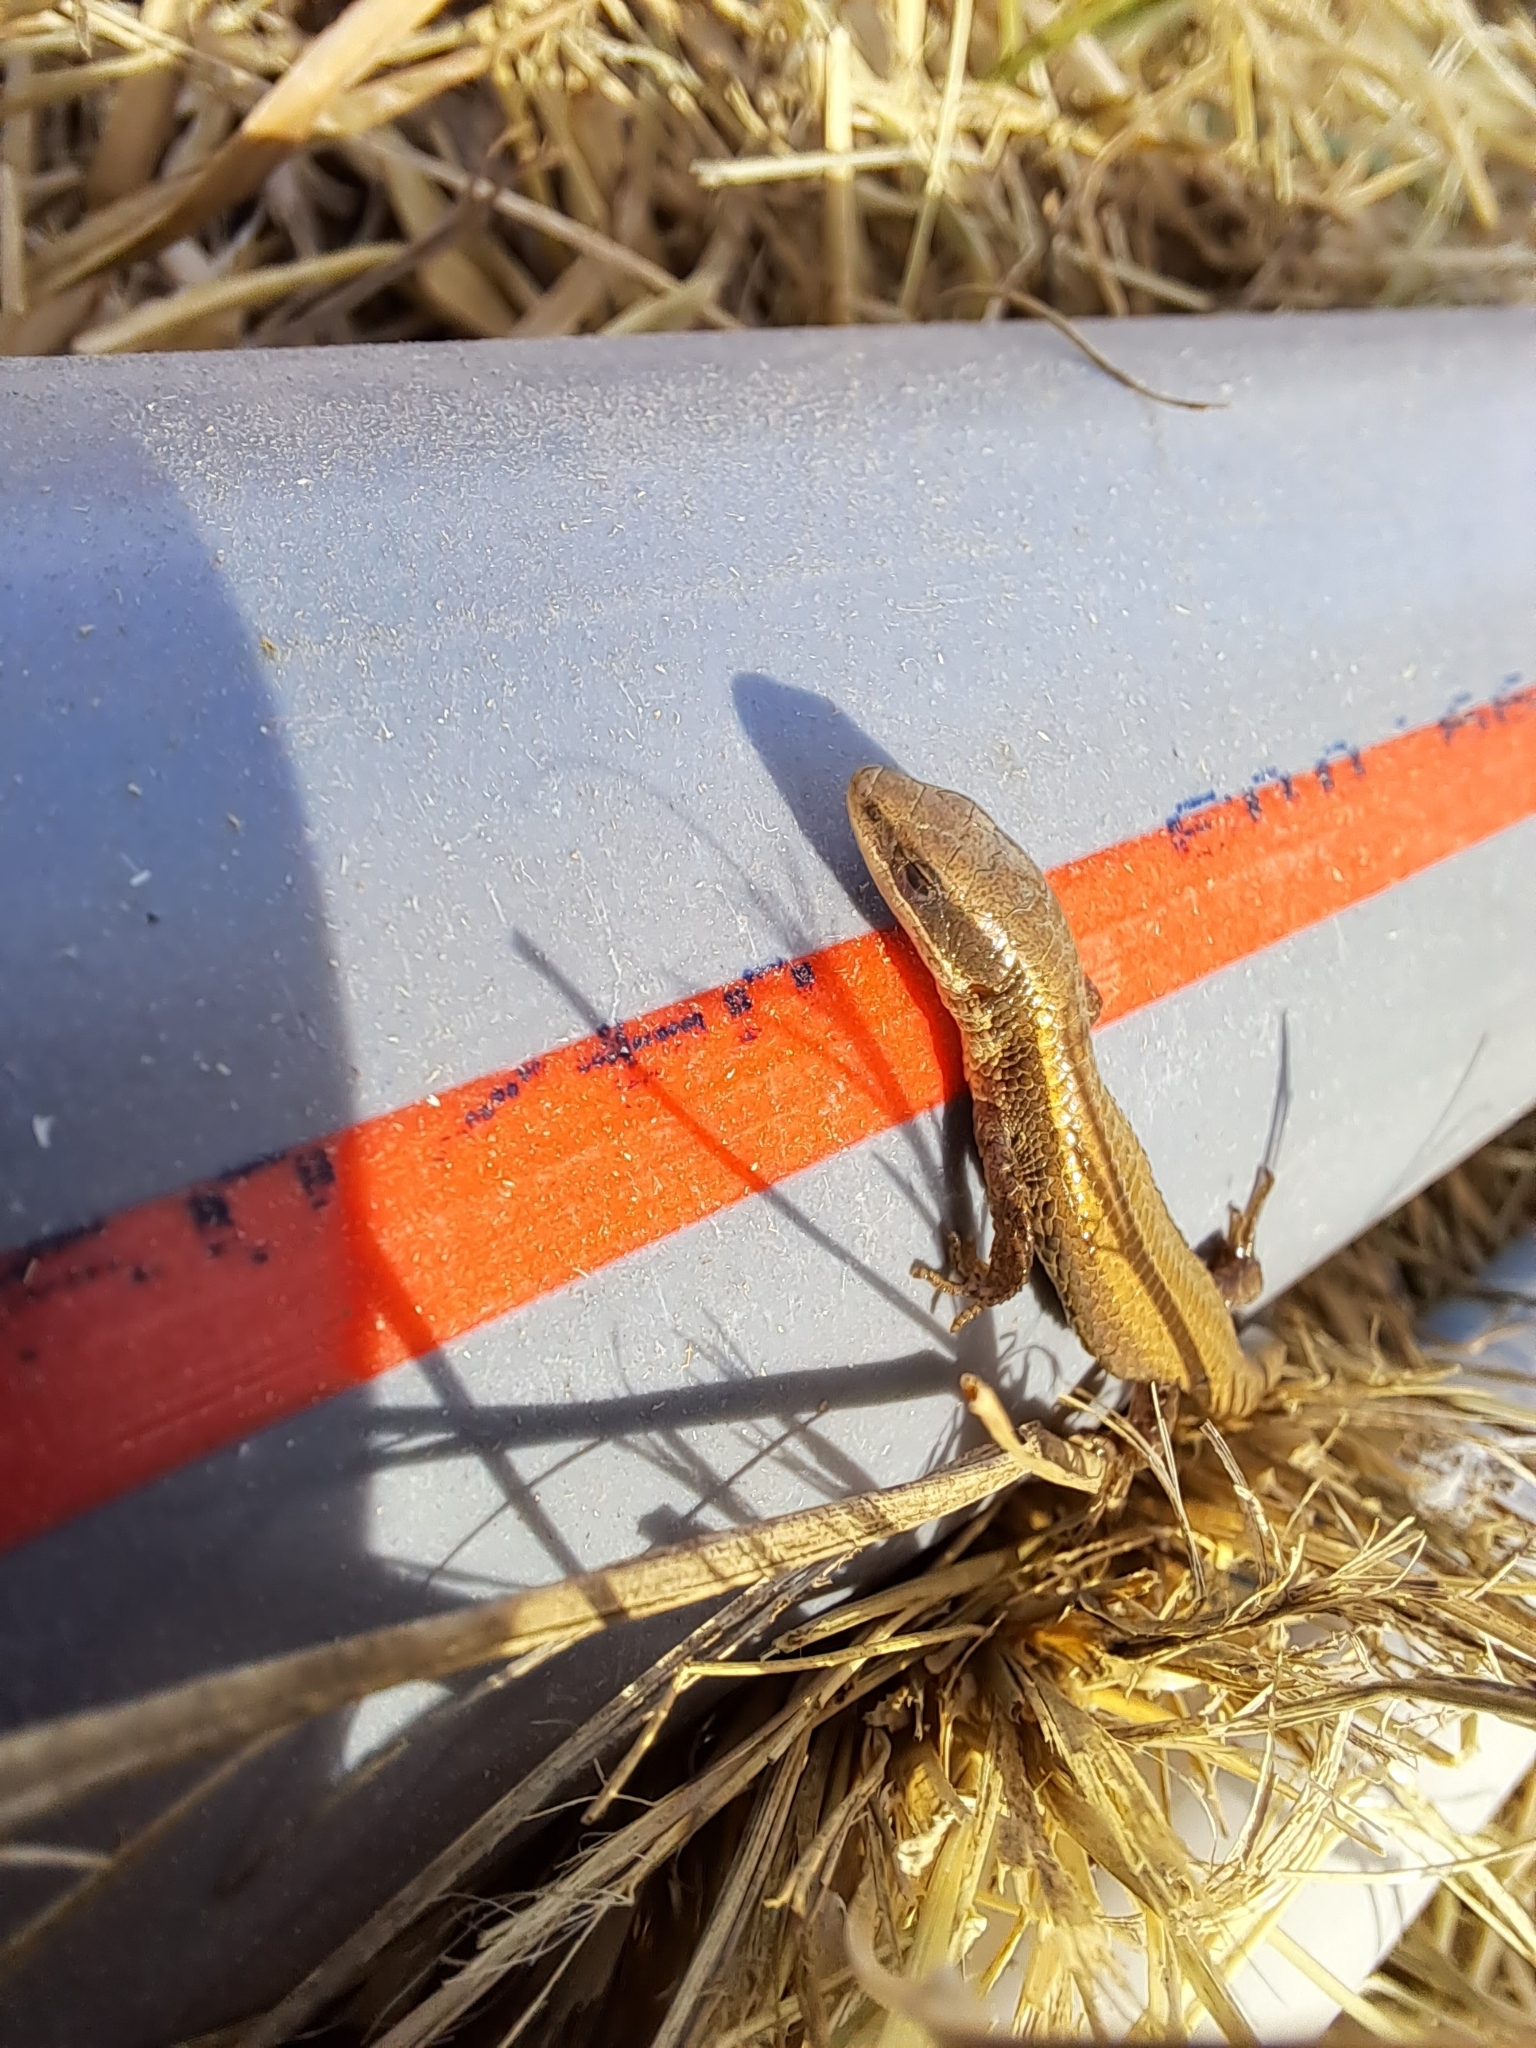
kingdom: Animalia
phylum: Chordata
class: Squamata
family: Gymnophthalmidae
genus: Macropholidus
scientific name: Macropholidus ruthveni
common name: Ruthven's macropholidus
